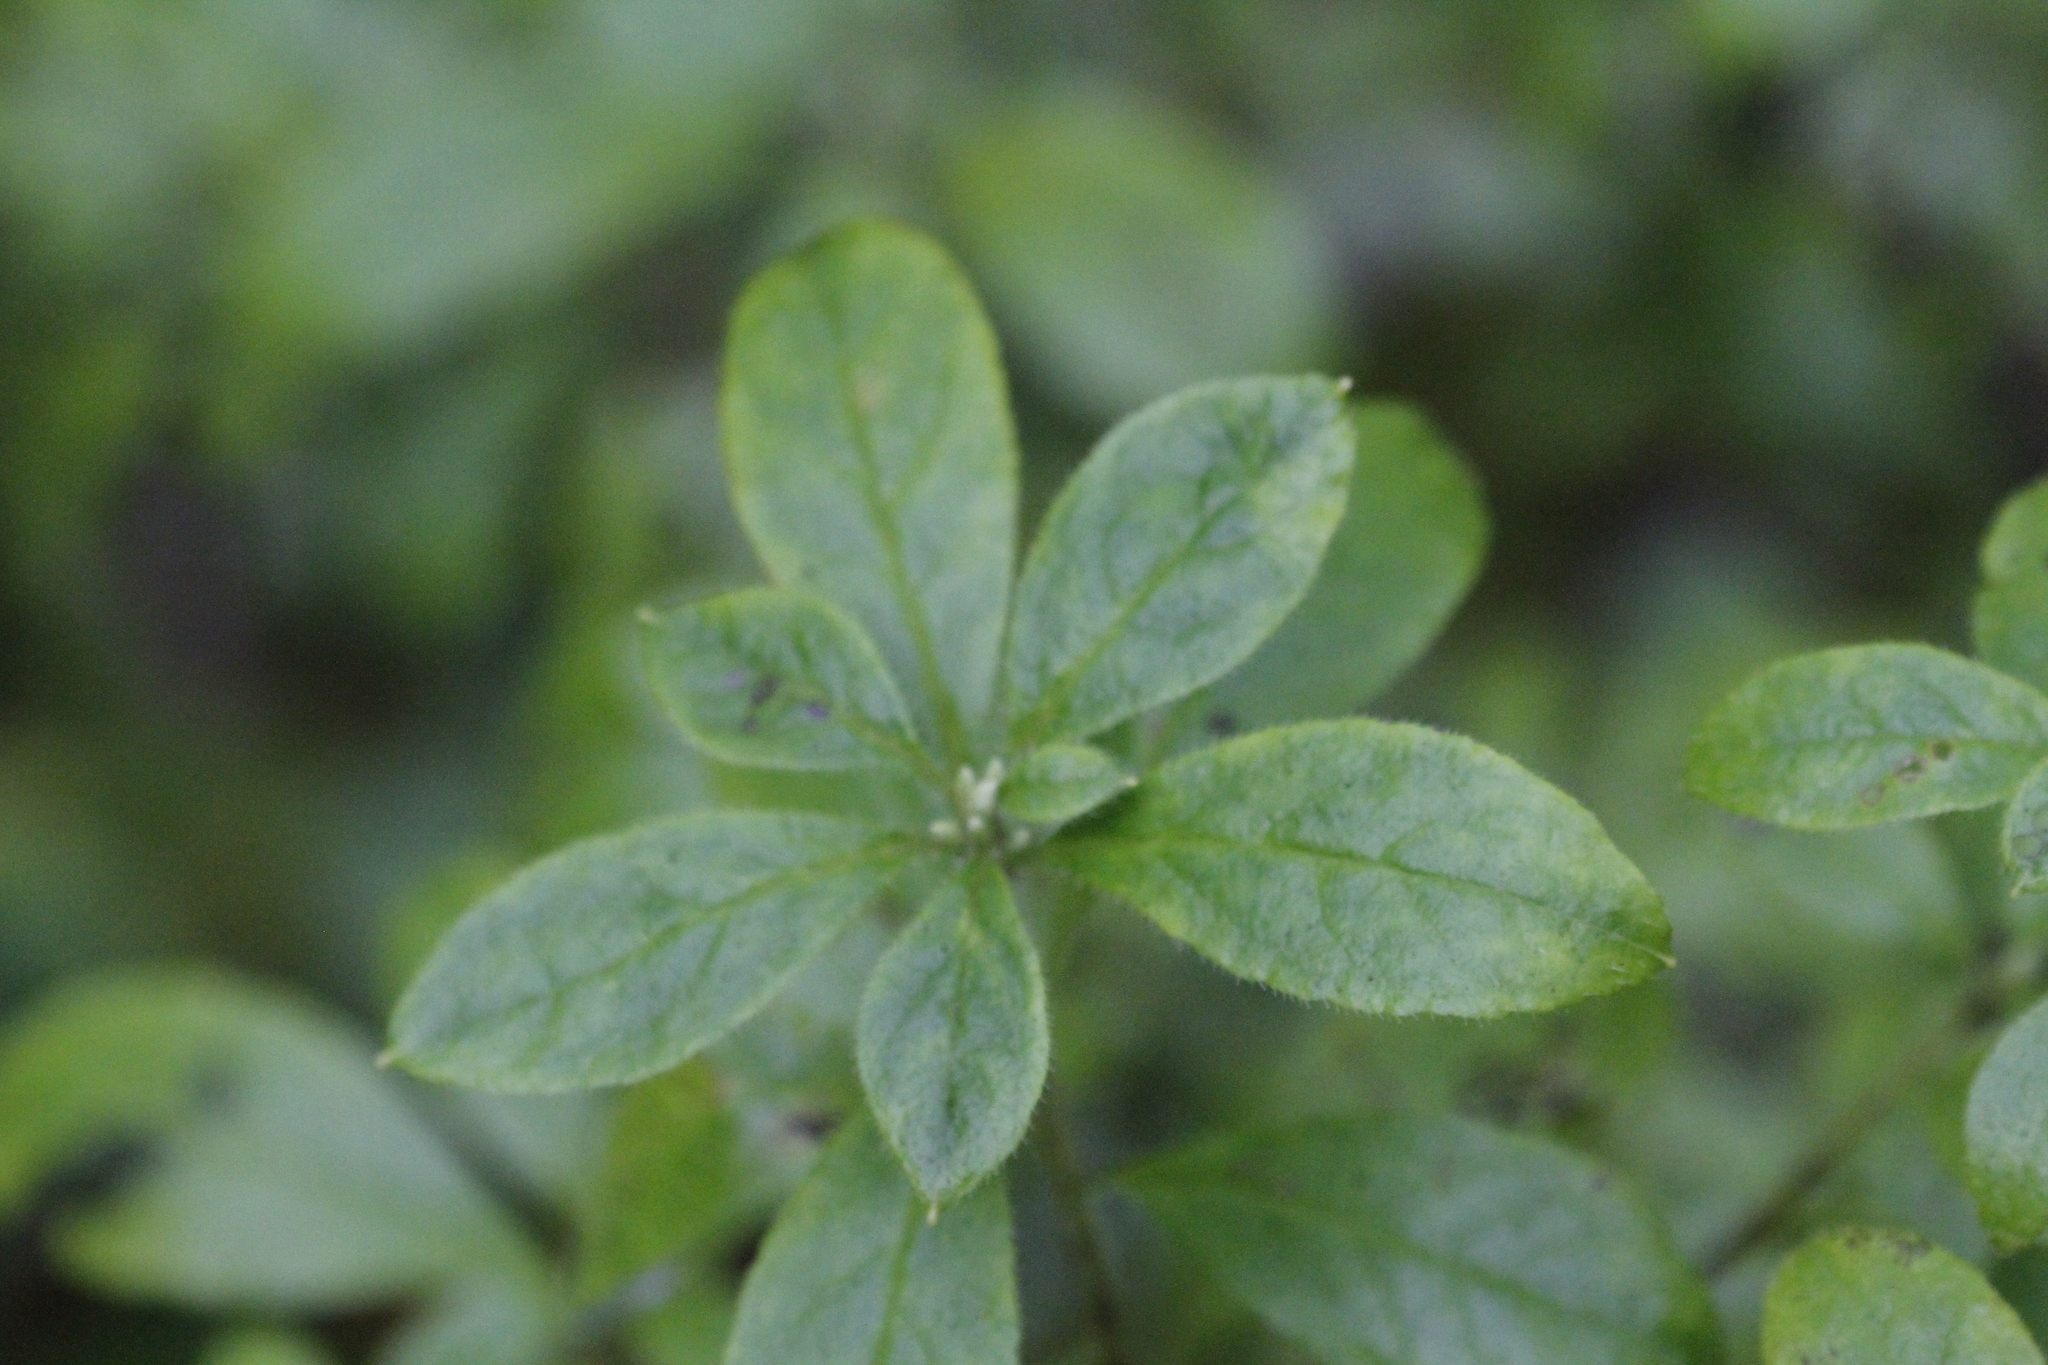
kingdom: Plantae
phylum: Tracheophyta
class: Magnoliopsida
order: Ericales
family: Ericaceae
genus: Rhododendron
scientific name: Rhododendron menziesii
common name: Pacific menziesia
